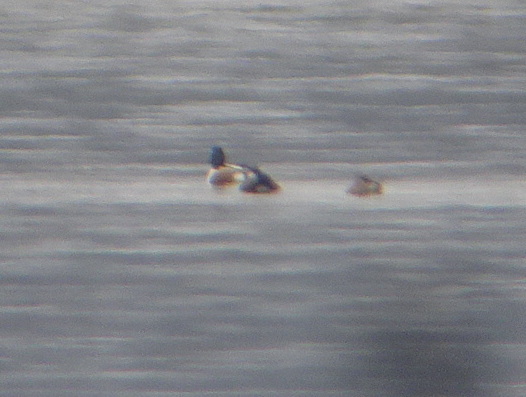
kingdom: Animalia
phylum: Chordata
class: Aves
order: Anseriformes
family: Anatidae
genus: Spatula
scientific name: Spatula clypeata
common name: Northern shoveler
